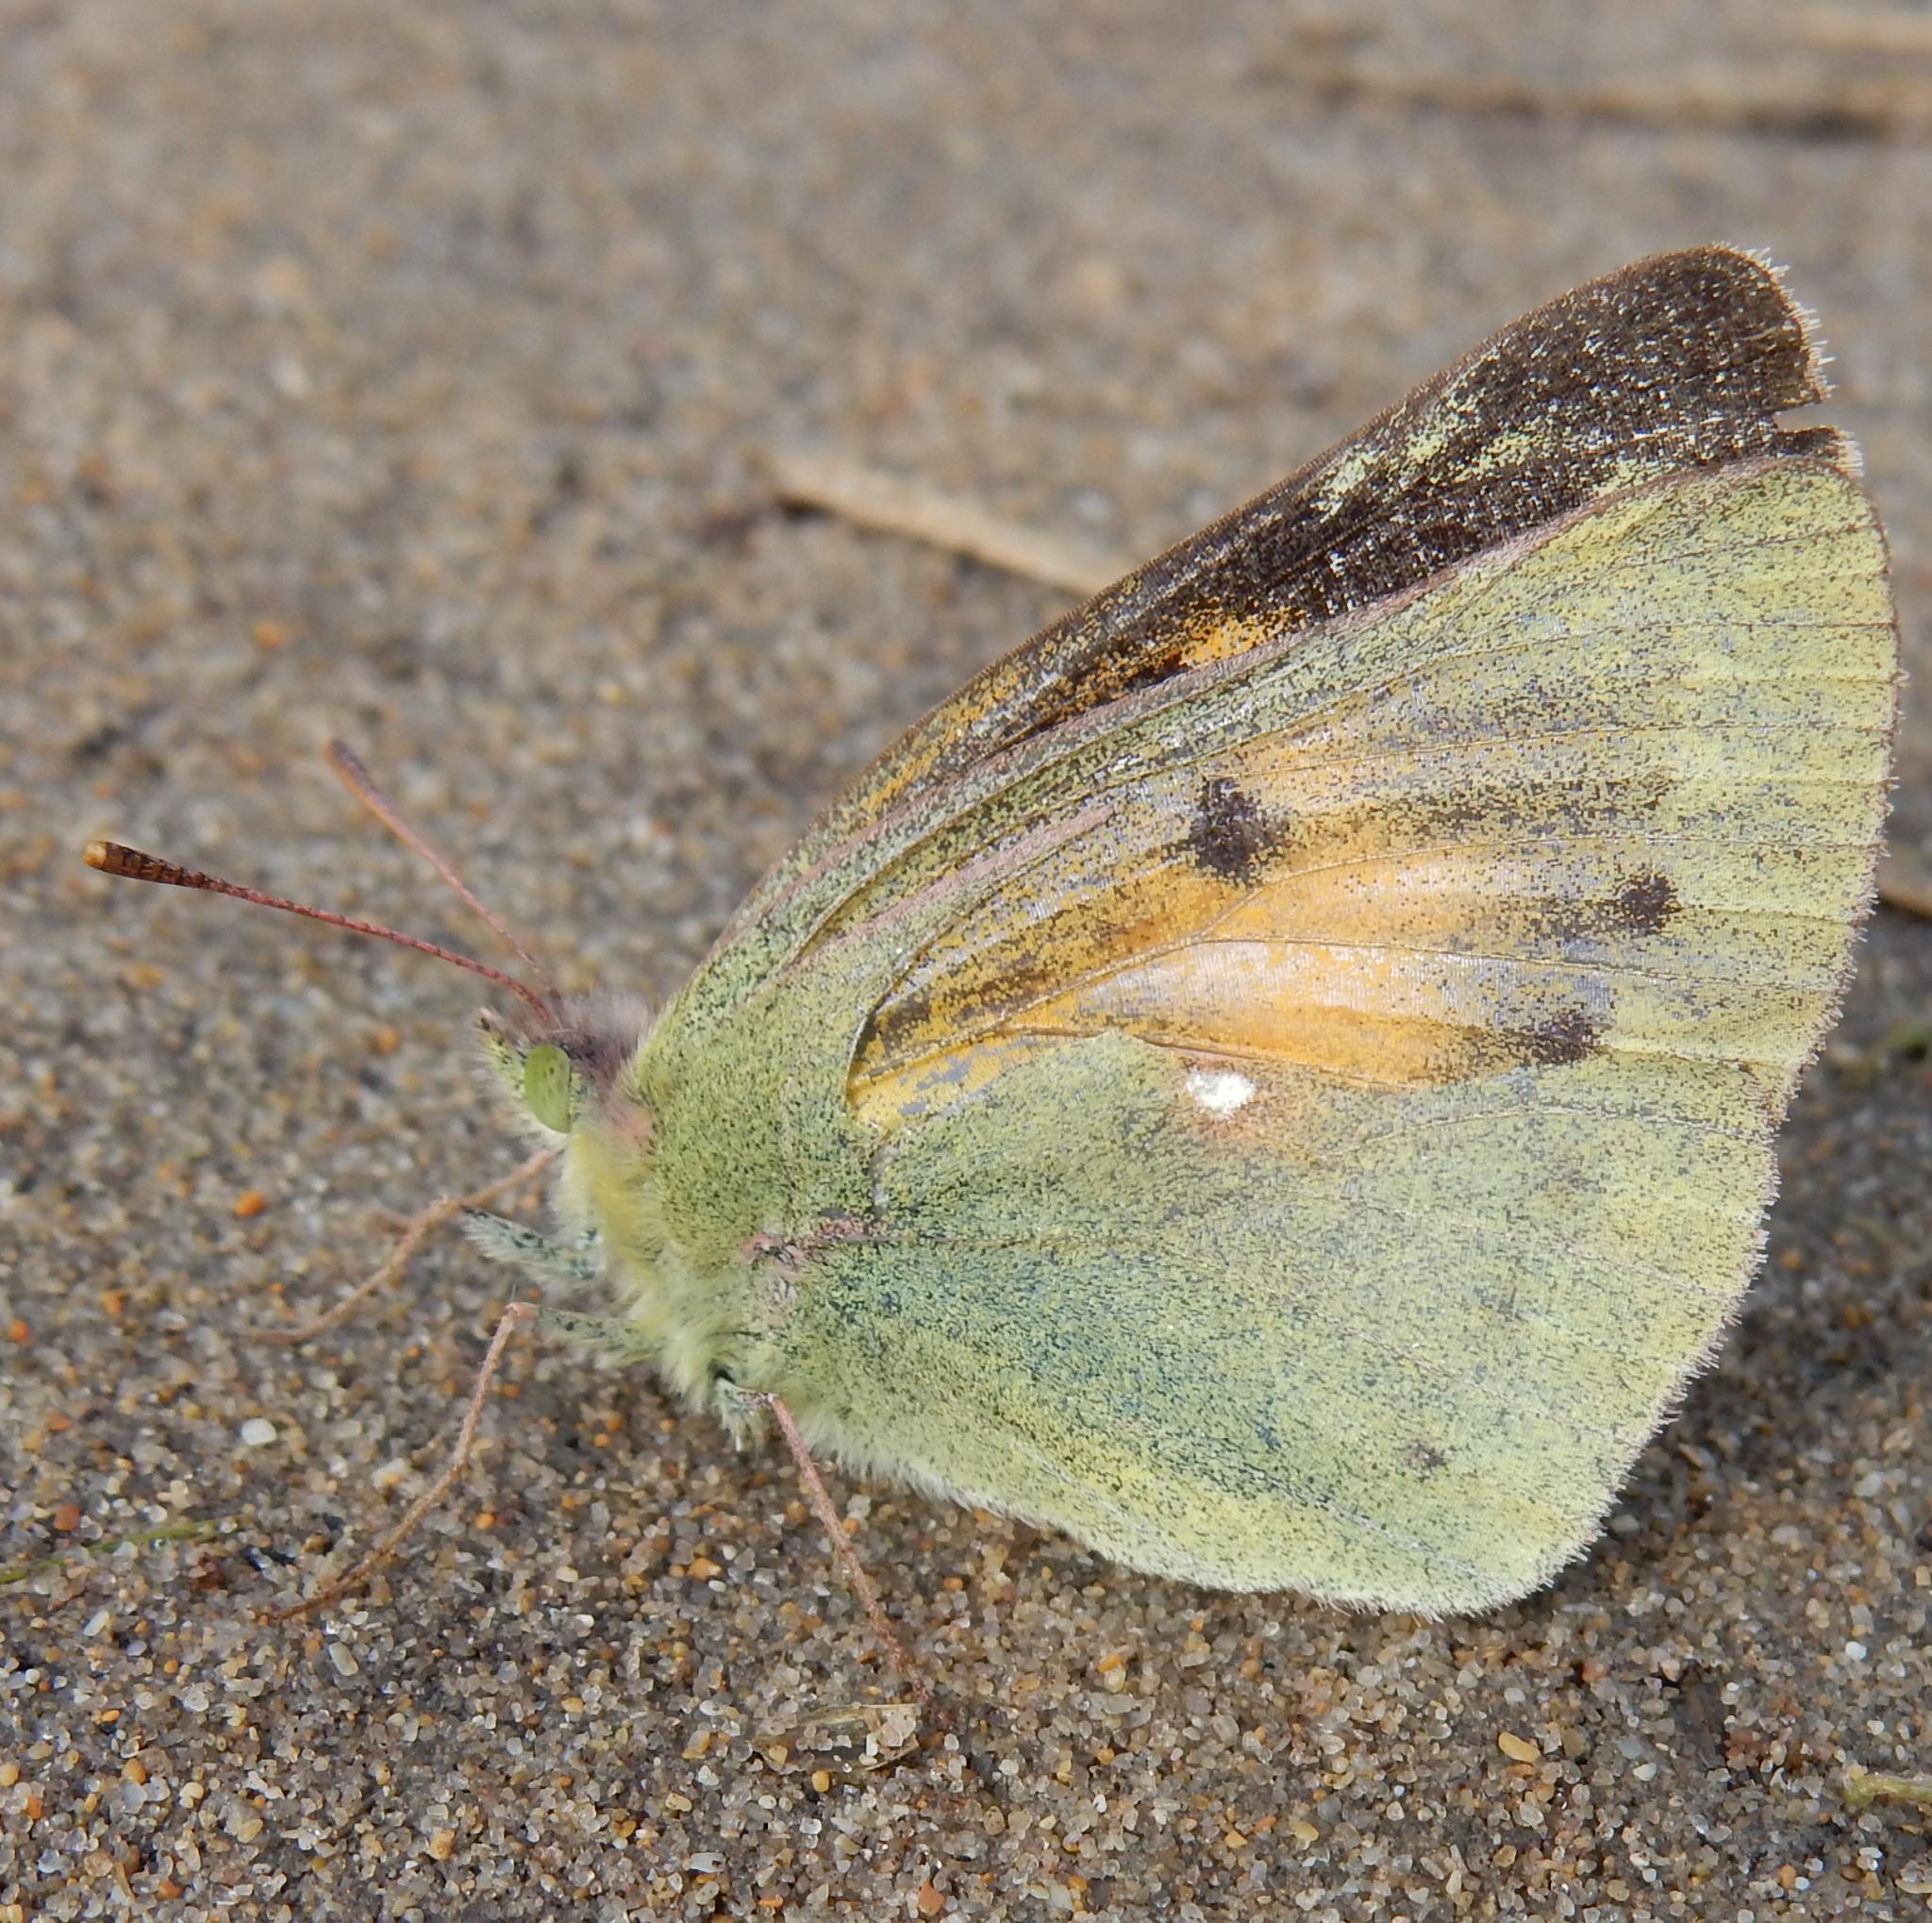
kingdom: Animalia
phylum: Arthropoda
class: Insecta
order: Lepidoptera
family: Pieridae
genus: Colias
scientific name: Colias electo
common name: African clouded yellow
